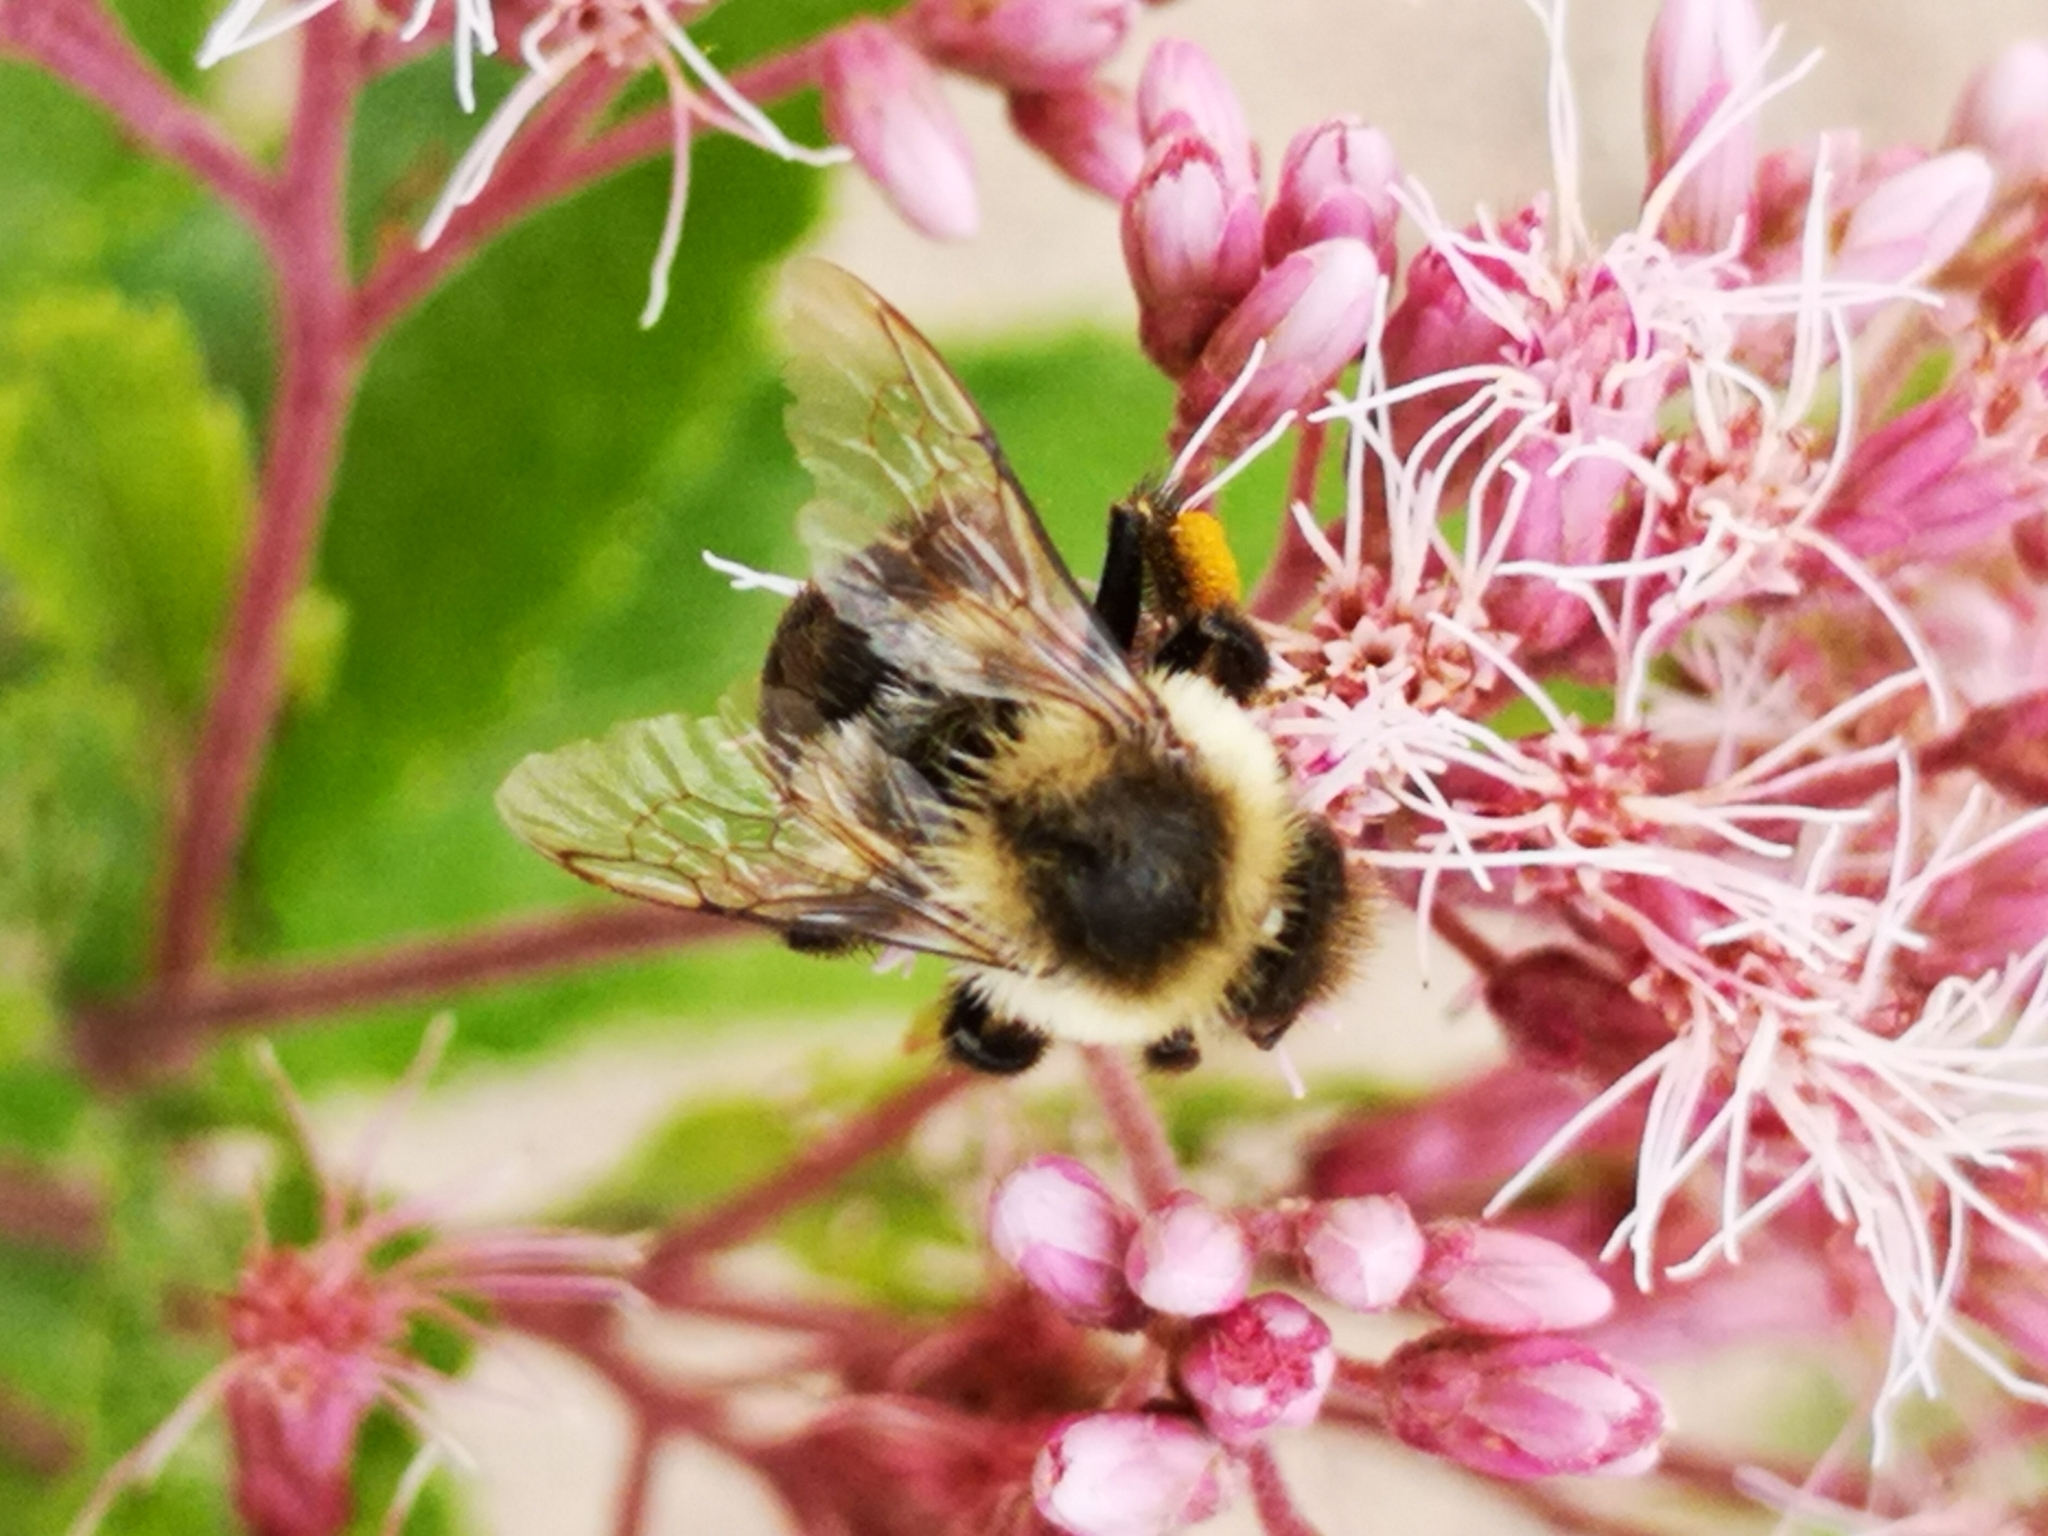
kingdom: Animalia
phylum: Arthropoda
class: Insecta
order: Hymenoptera
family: Apidae
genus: Bombus
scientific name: Bombus impatiens
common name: Common eastern bumble bee
